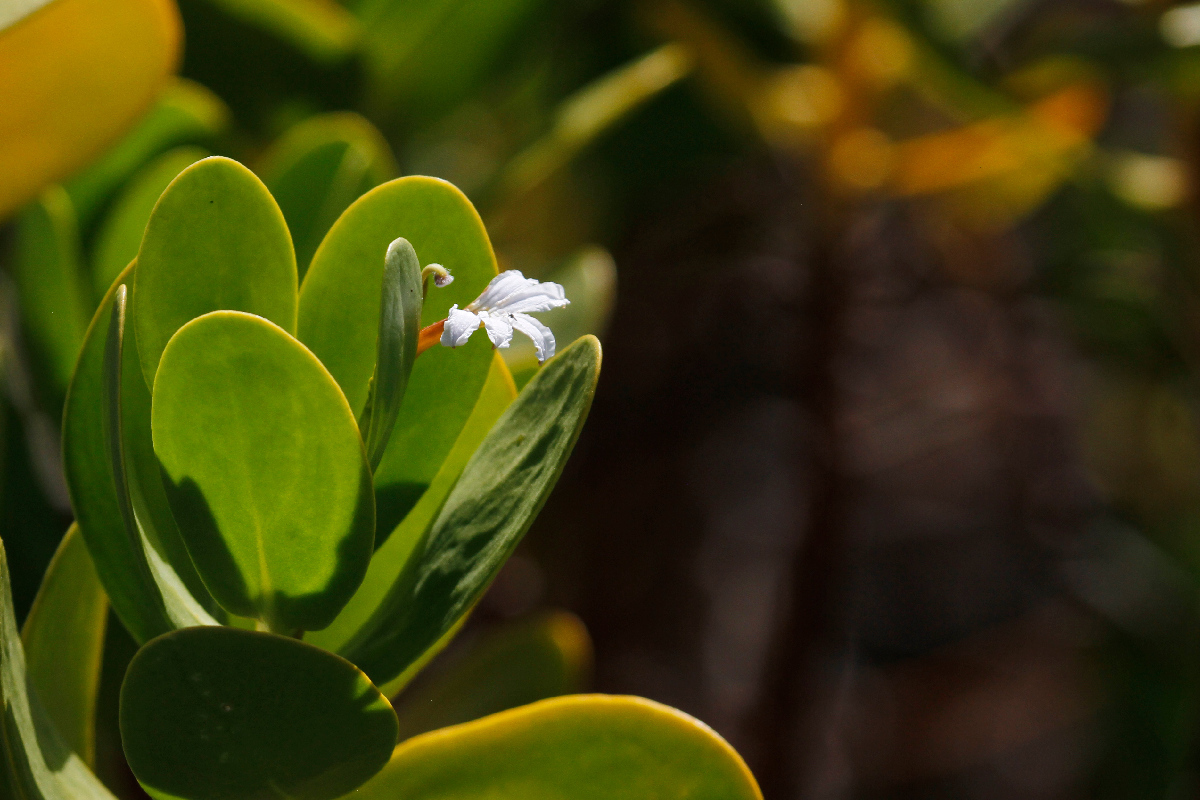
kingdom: Plantae
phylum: Tracheophyta
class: Magnoliopsida
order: Asterales
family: Goodeniaceae
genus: Scaevola
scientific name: Scaevola plumieri
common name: Gull feed
